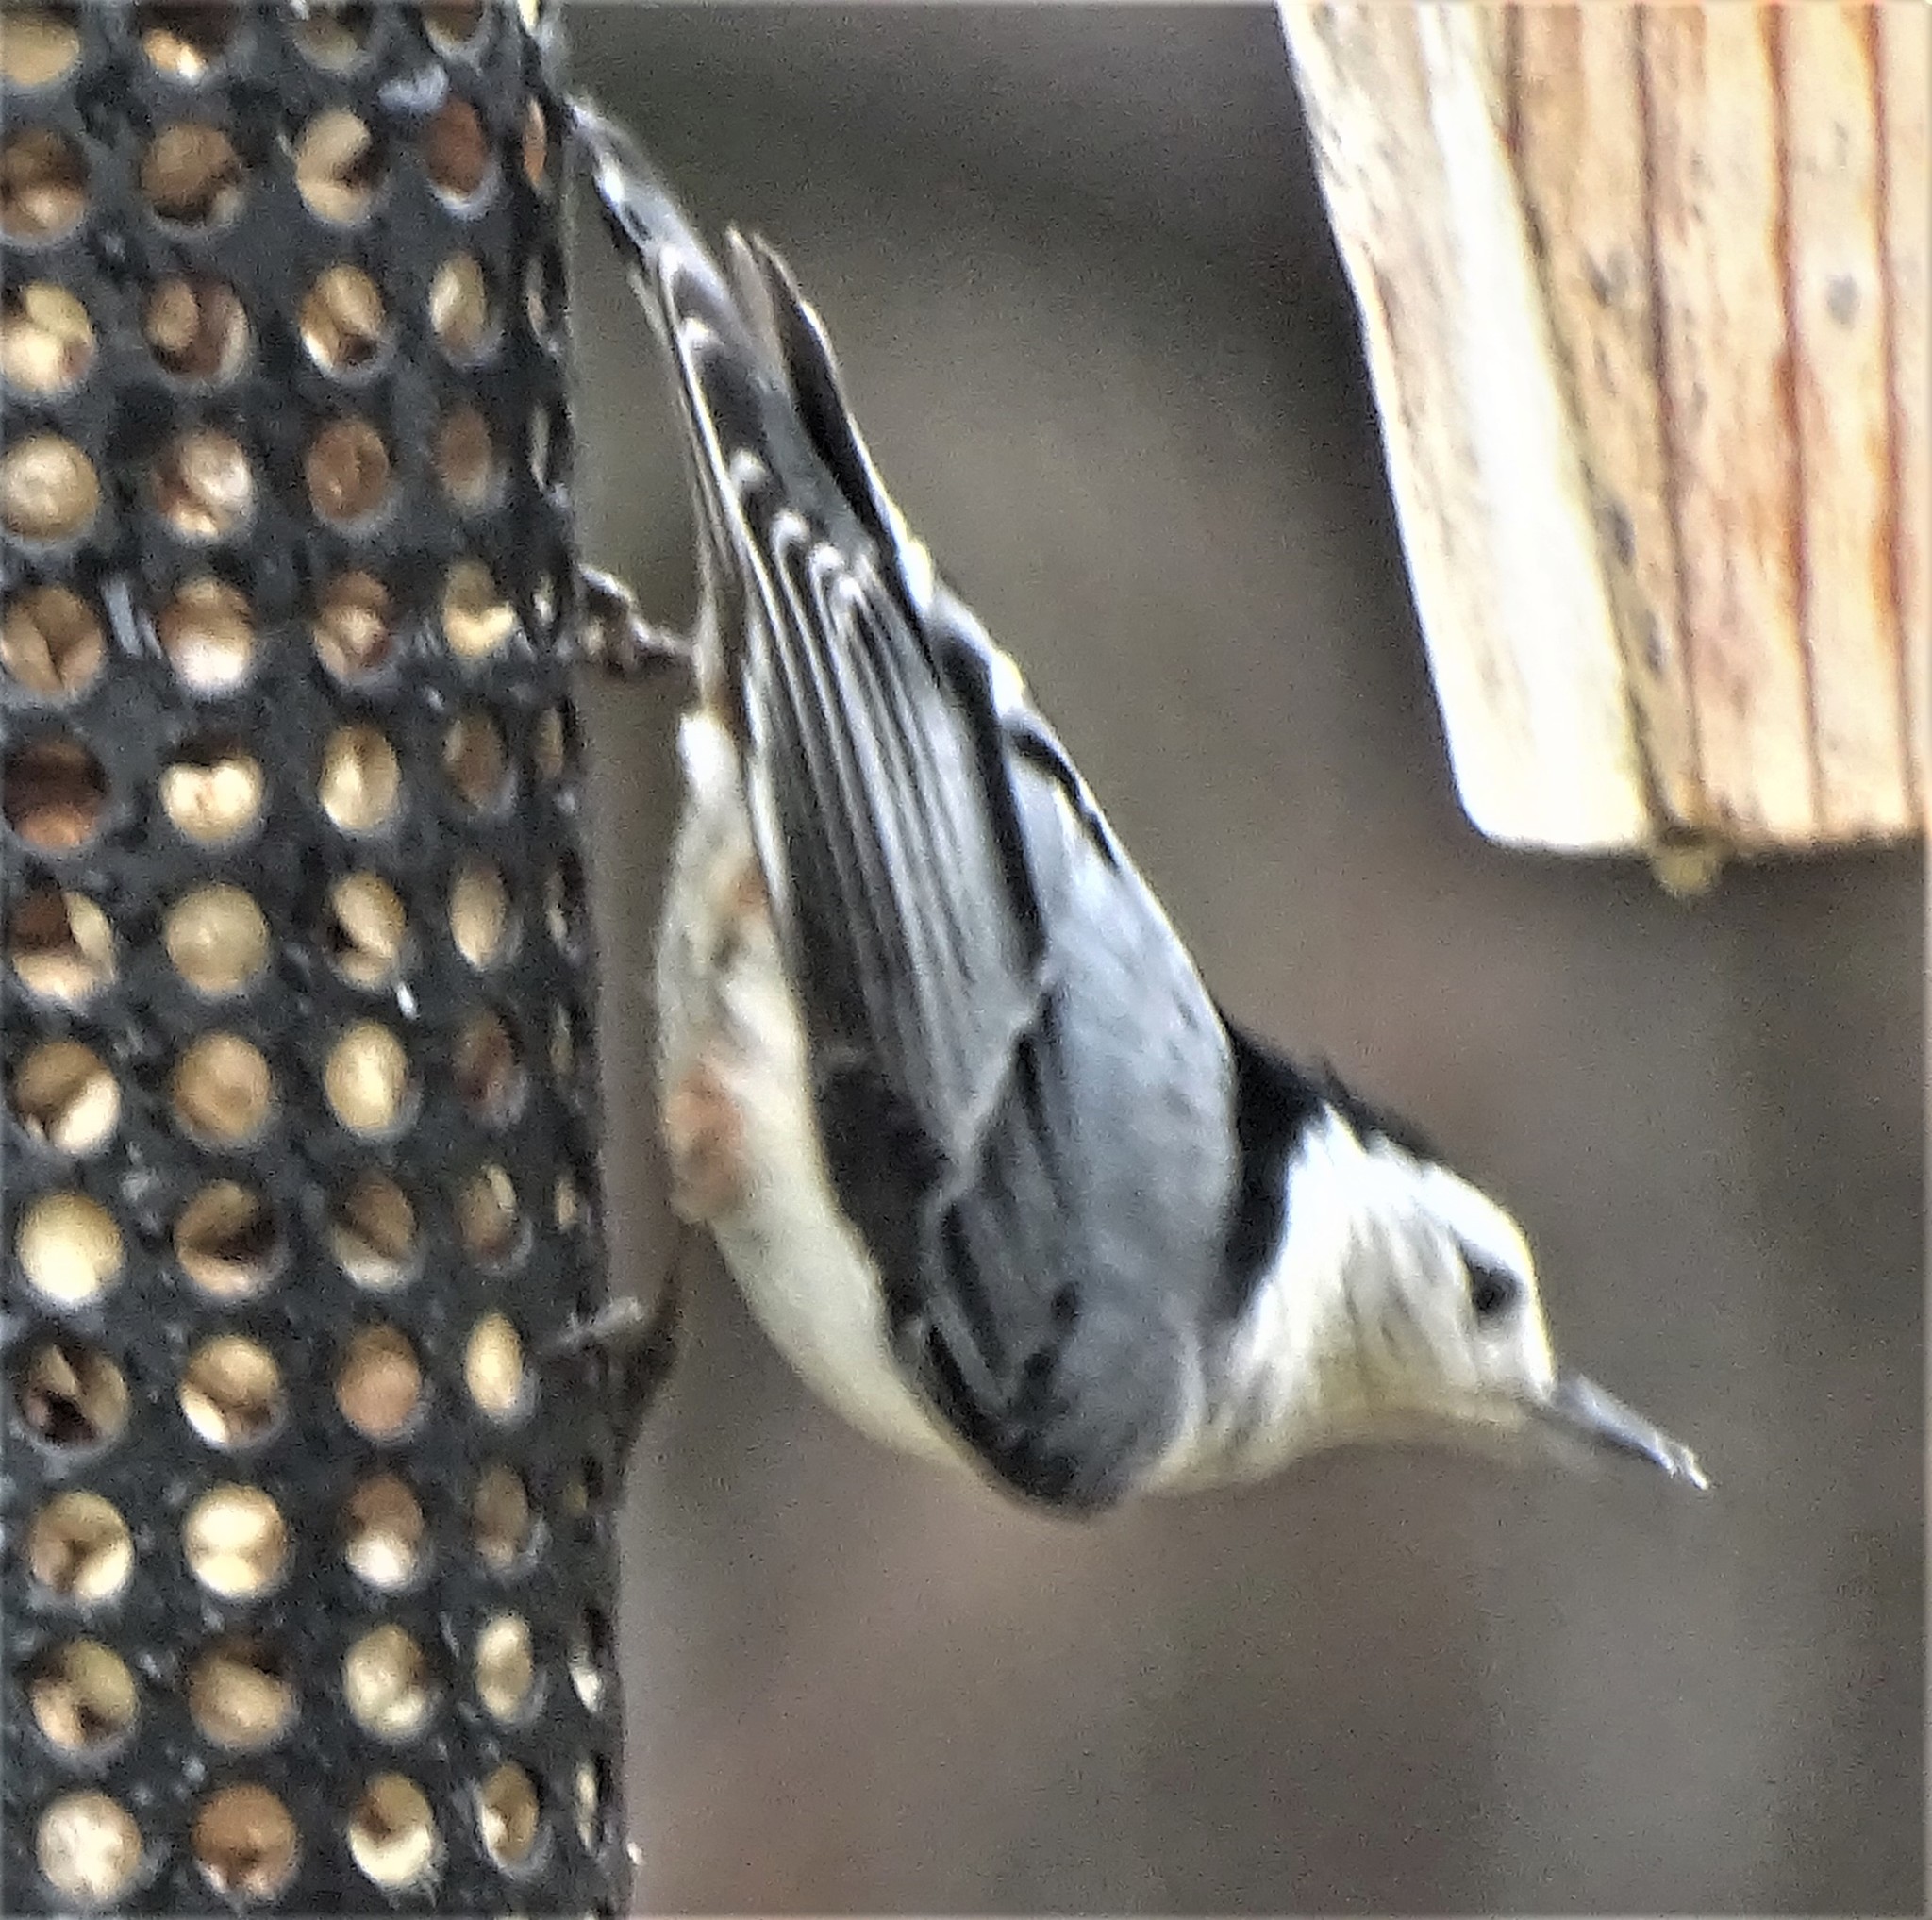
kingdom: Animalia
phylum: Chordata
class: Aves
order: Passeriformes
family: Sittidae
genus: Sitta
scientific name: Sitta carolinensis
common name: White-breasted nuthatch
